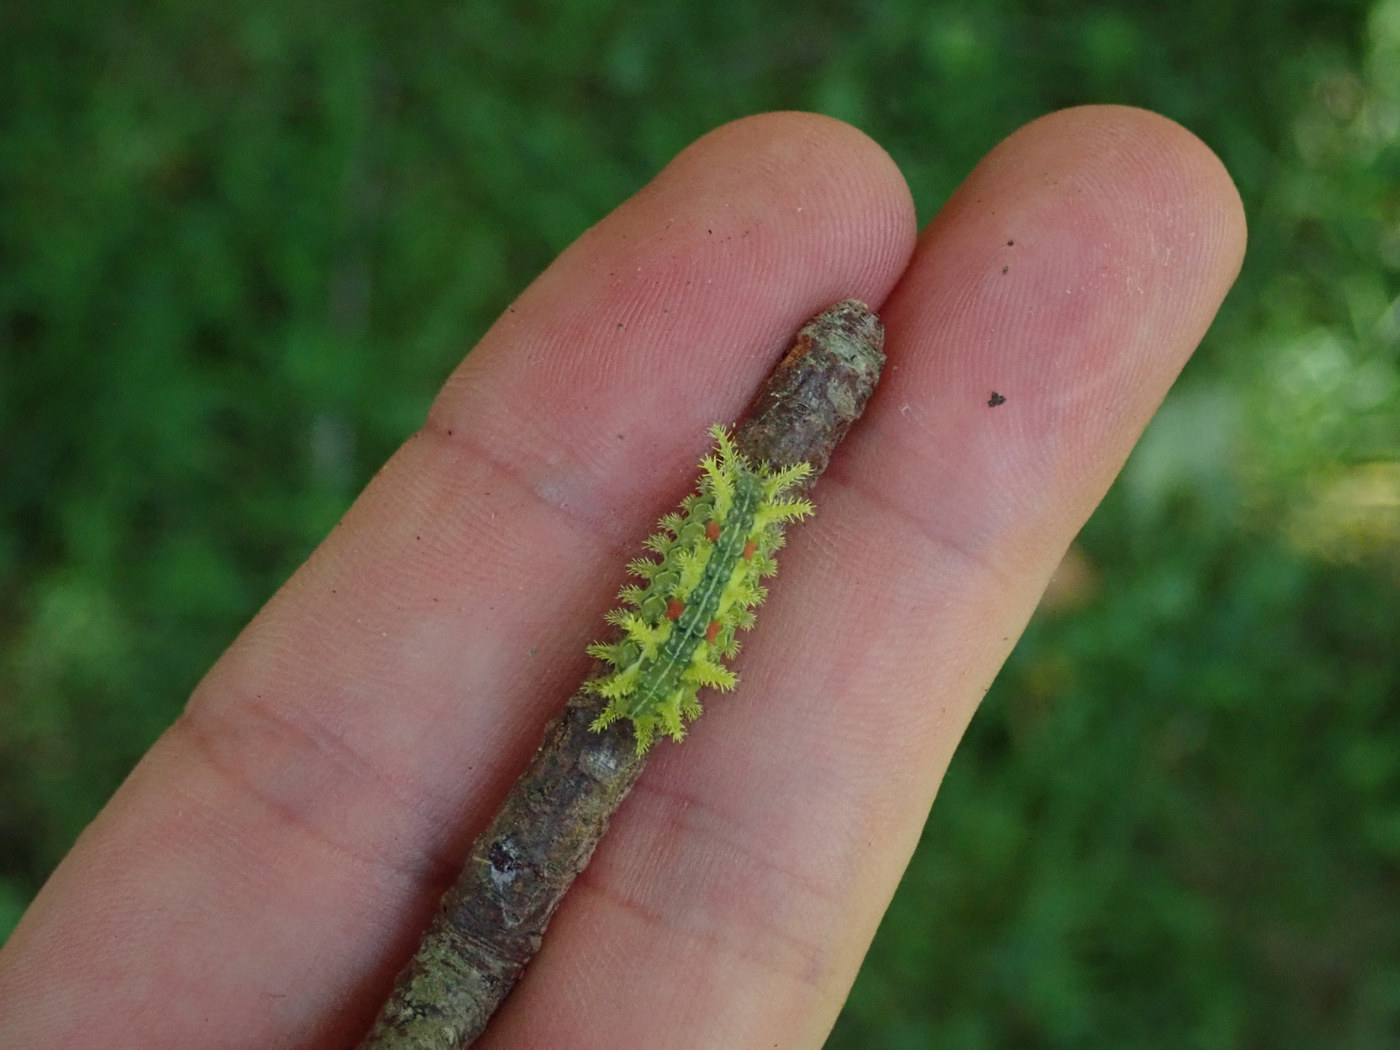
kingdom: Animalia
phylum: Arthropoda
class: Insecta
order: Lepidoptera
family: Limacodidae
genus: Euclea
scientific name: Euclea delphinii
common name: Spiny oak-slug moth
